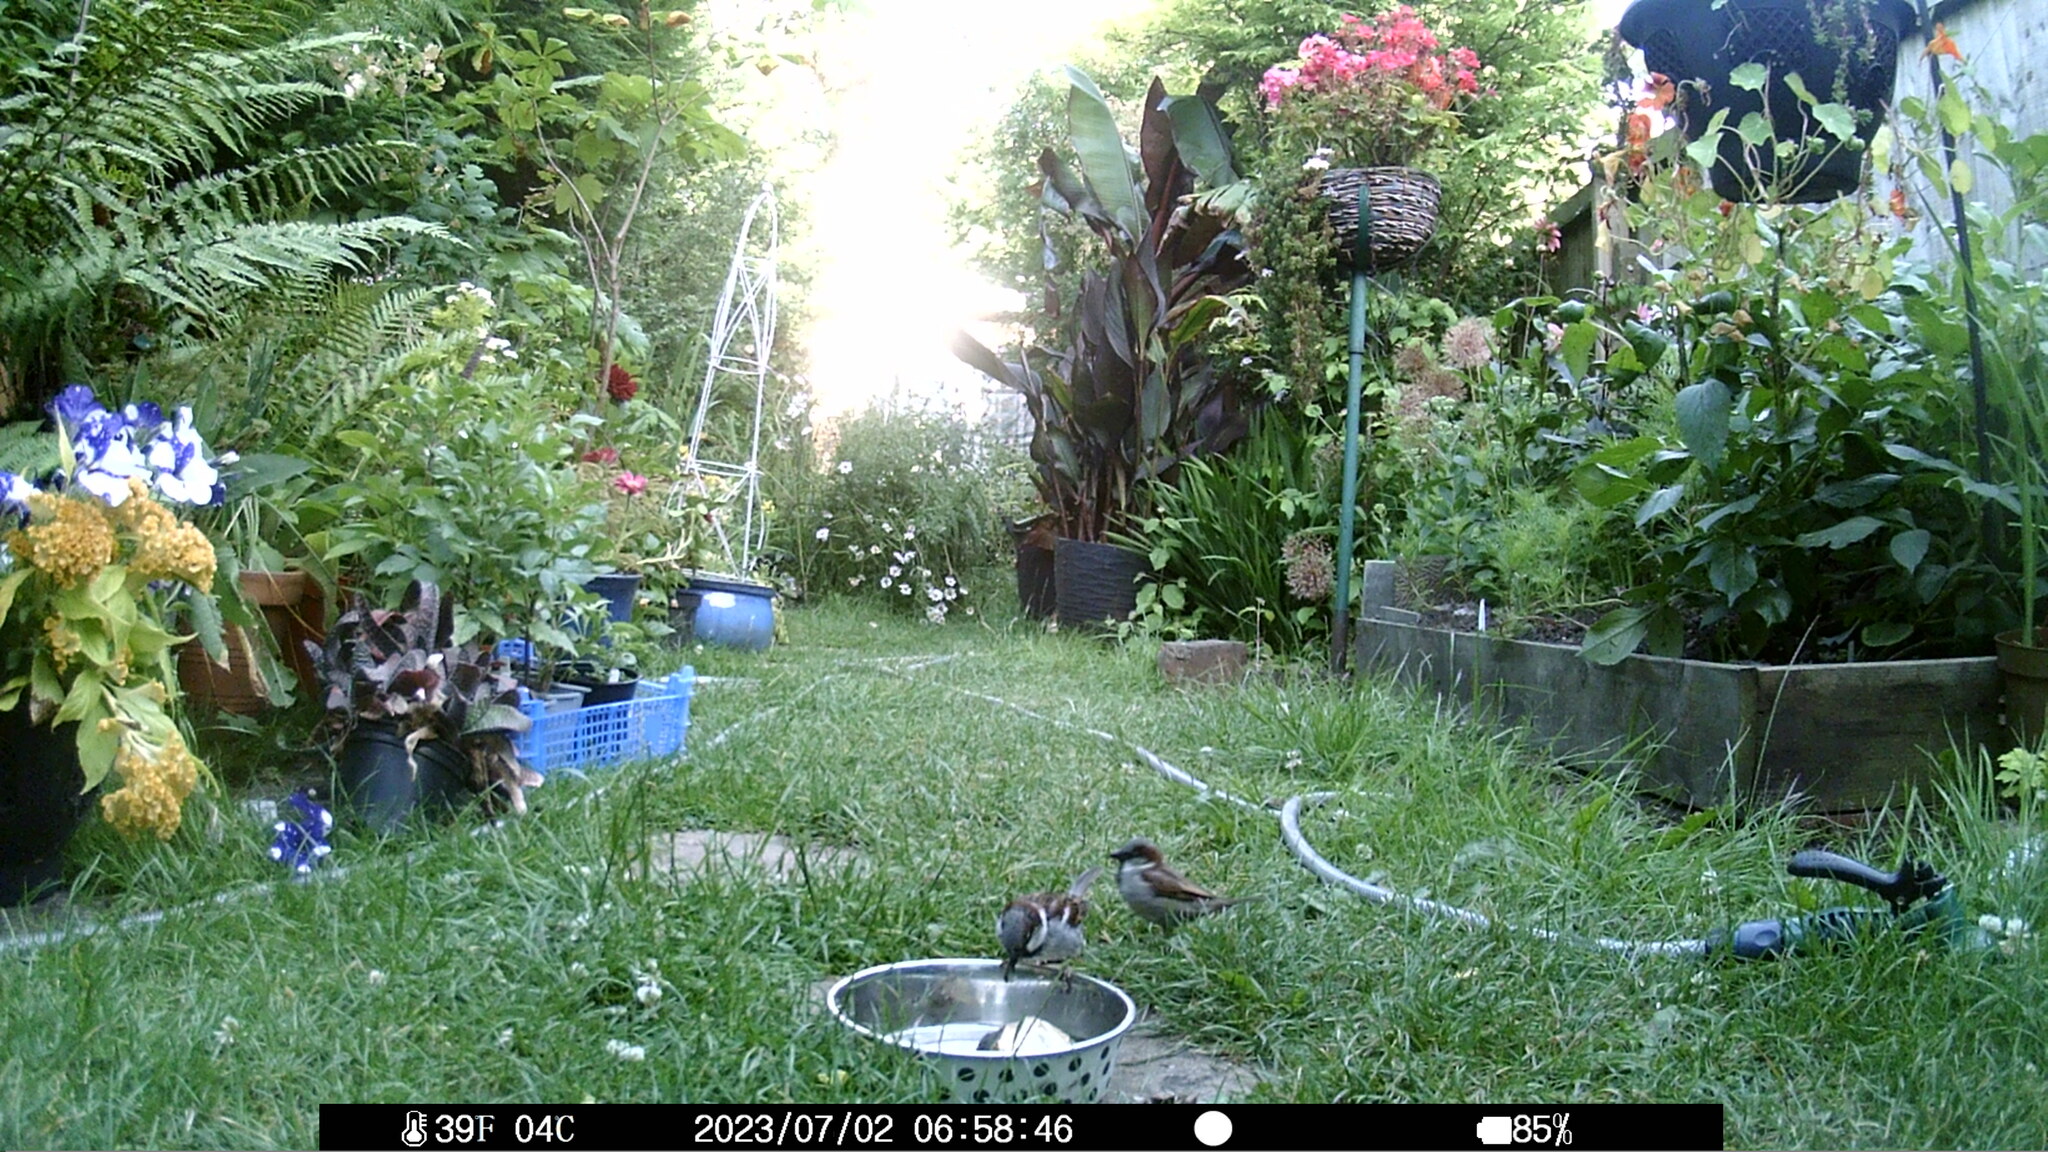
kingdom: Animalia
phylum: Chordata
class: Aves
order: Passeriformes
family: Passeridae
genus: Passer
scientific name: Passer domesticus
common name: House sparrow
